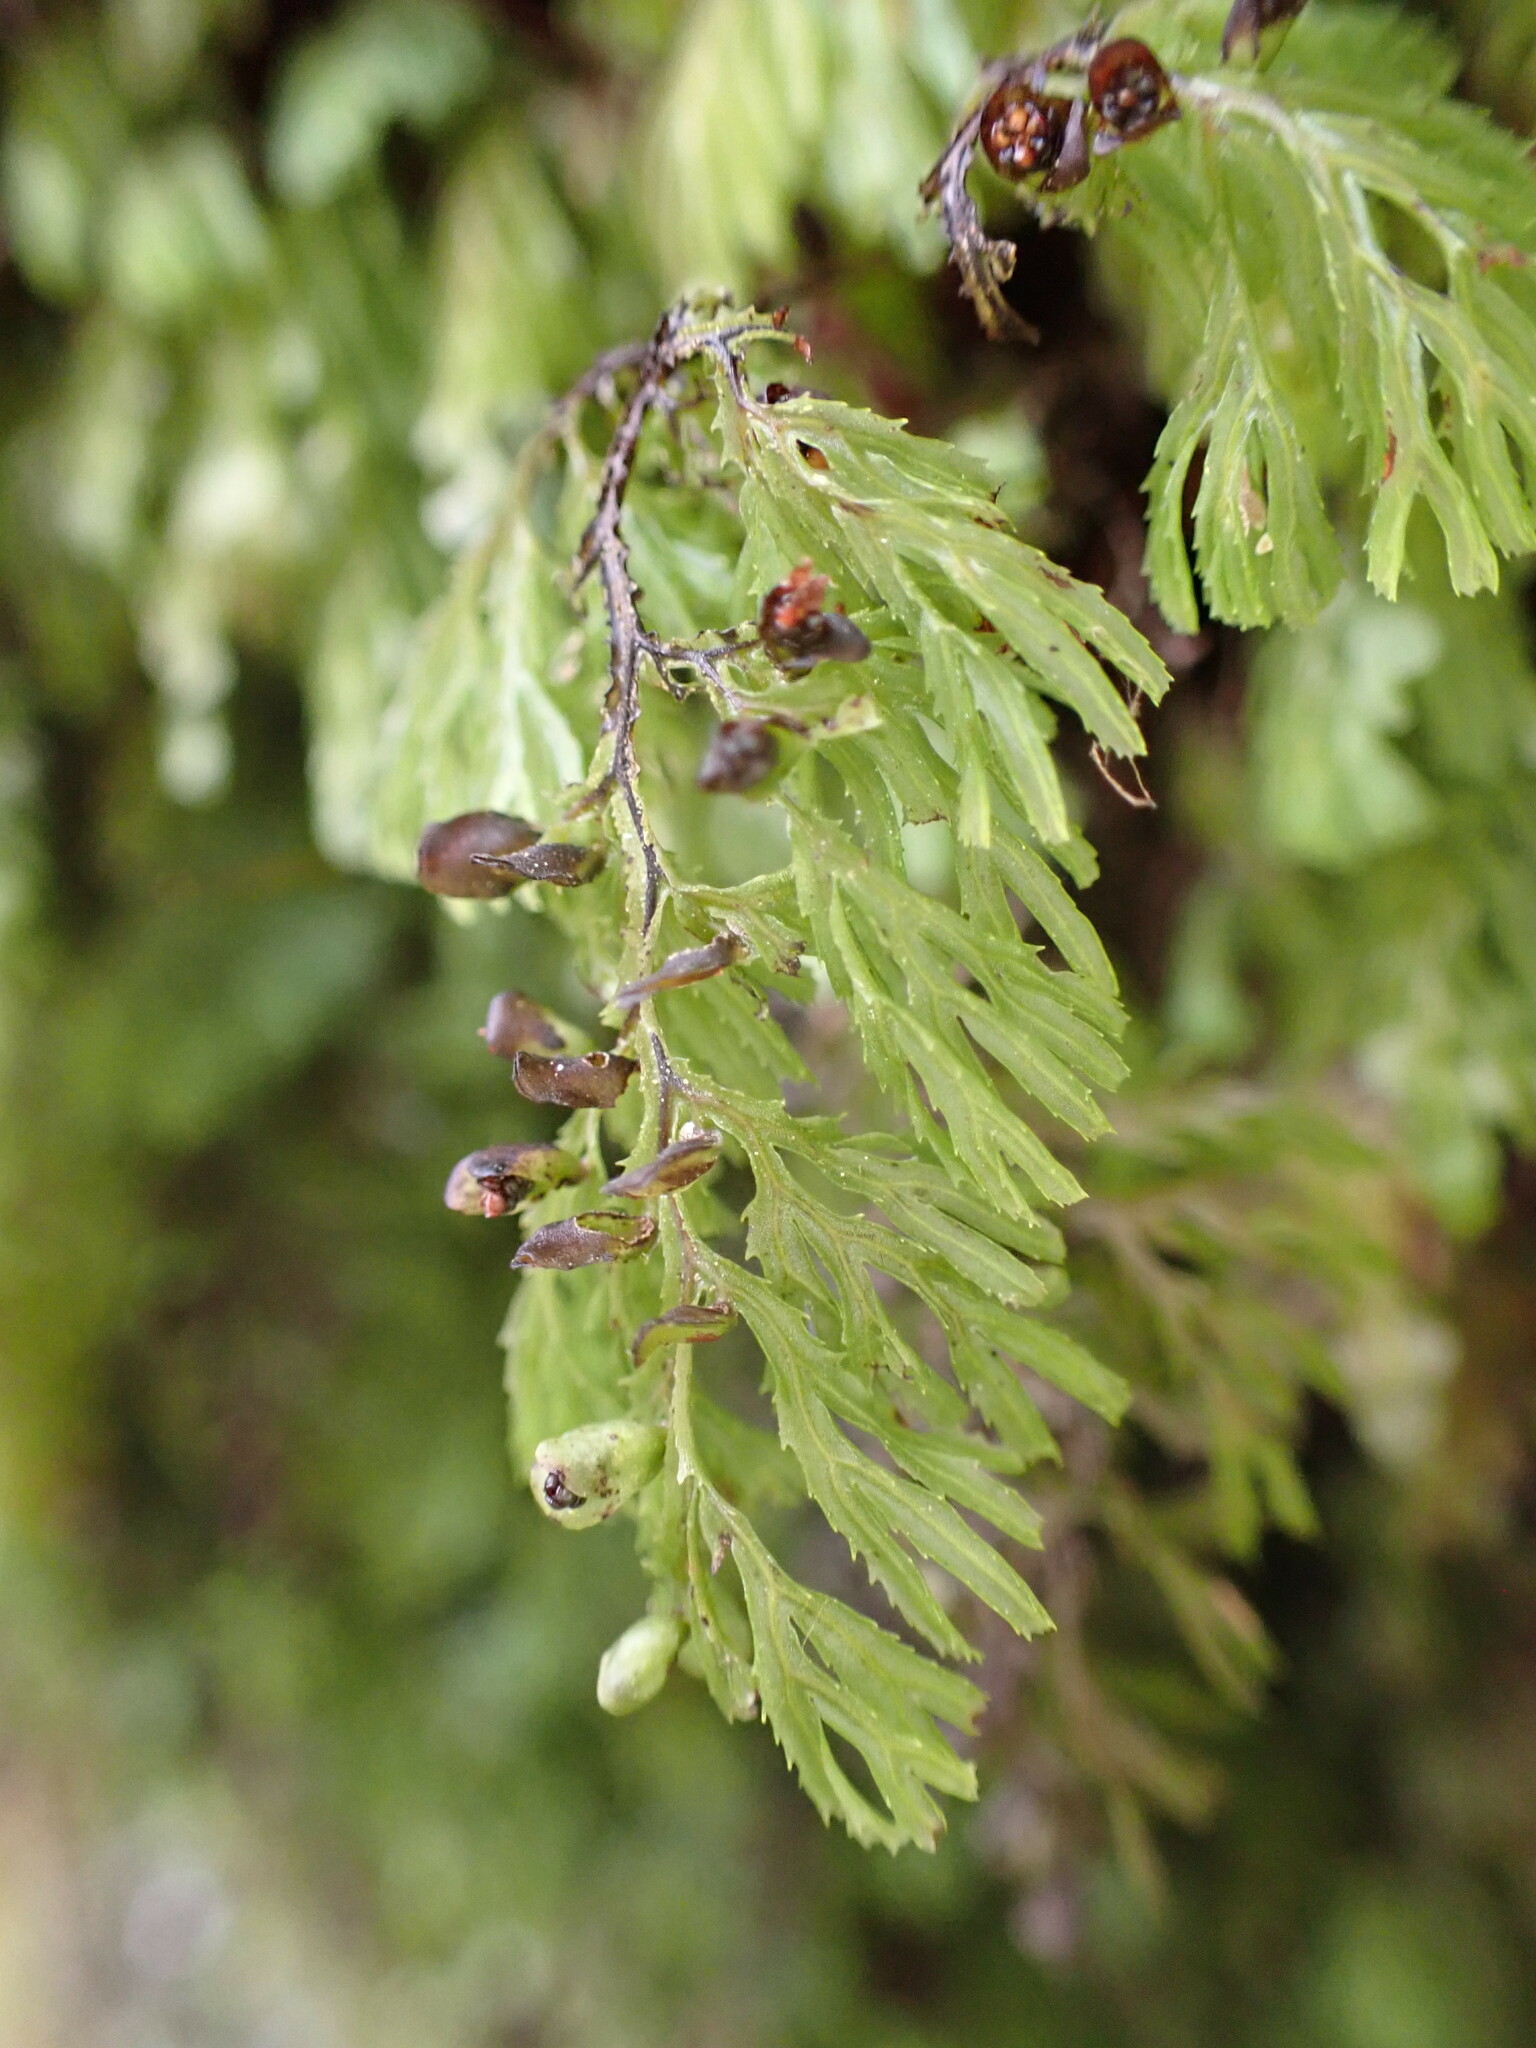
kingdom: Plantae
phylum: Tracheophyta
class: Polypodiopsida
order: Hymenophyllales
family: Hymenophyllaceae
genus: Hymenophyllum
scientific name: Hymenophyllum multifidum
